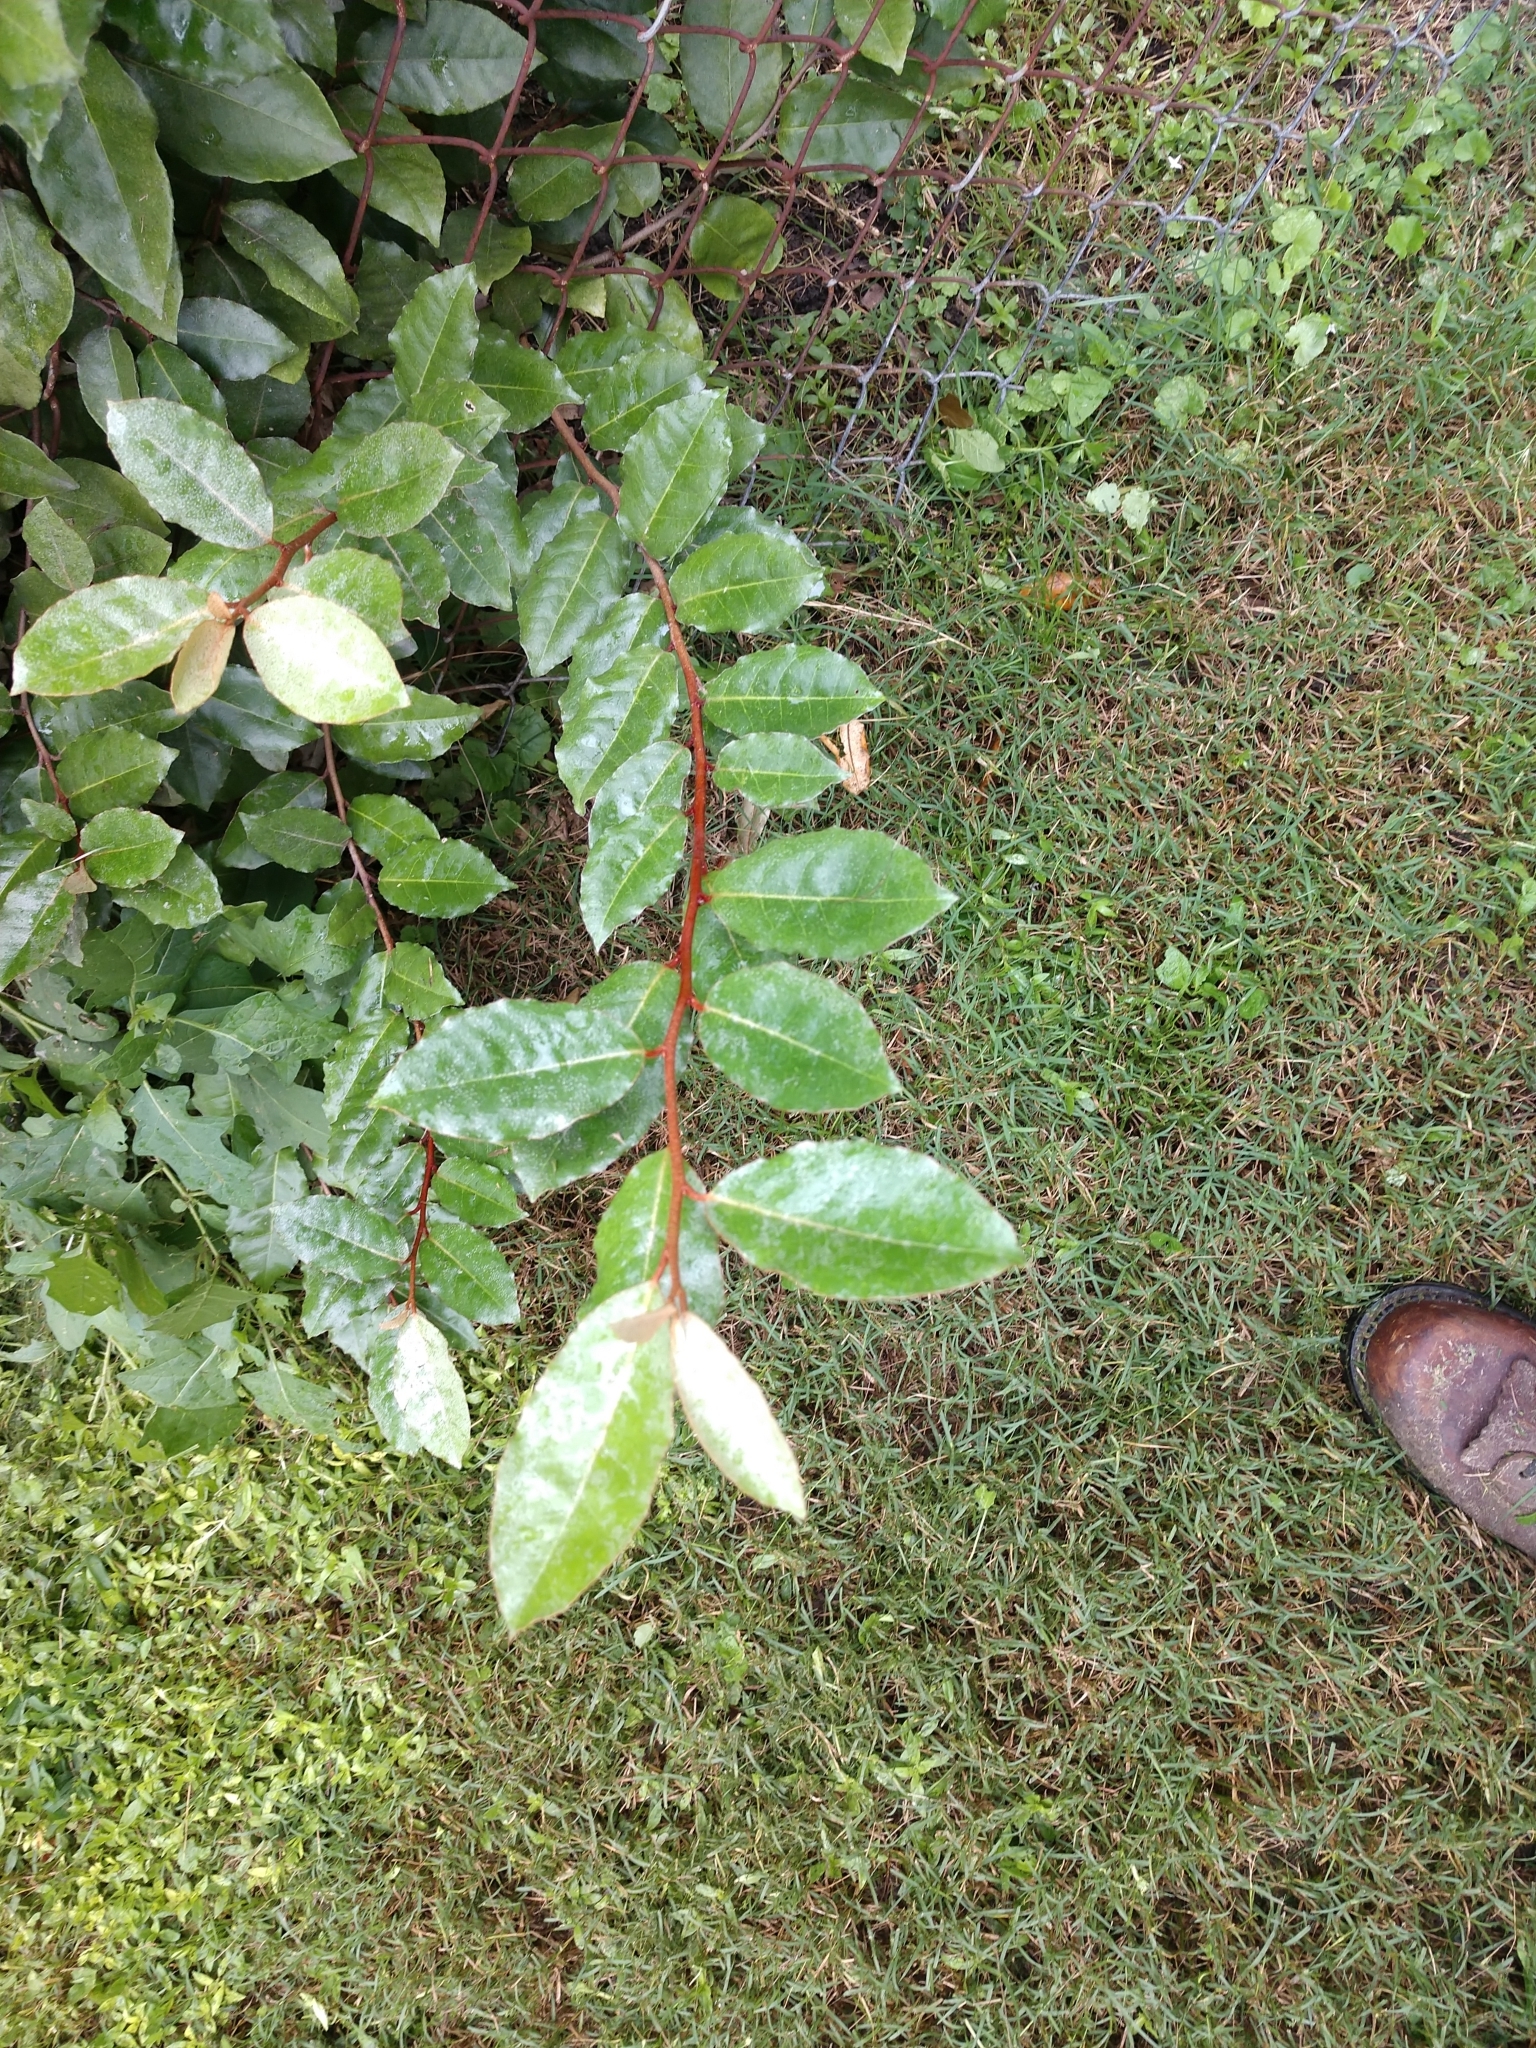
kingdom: Plantae
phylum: Tracheophyta
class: Magnoliopsida
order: Rosales
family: Elaeagnaceae
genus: Elaeagnus
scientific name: Elaeagnus pungens
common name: Spiny oleaster
